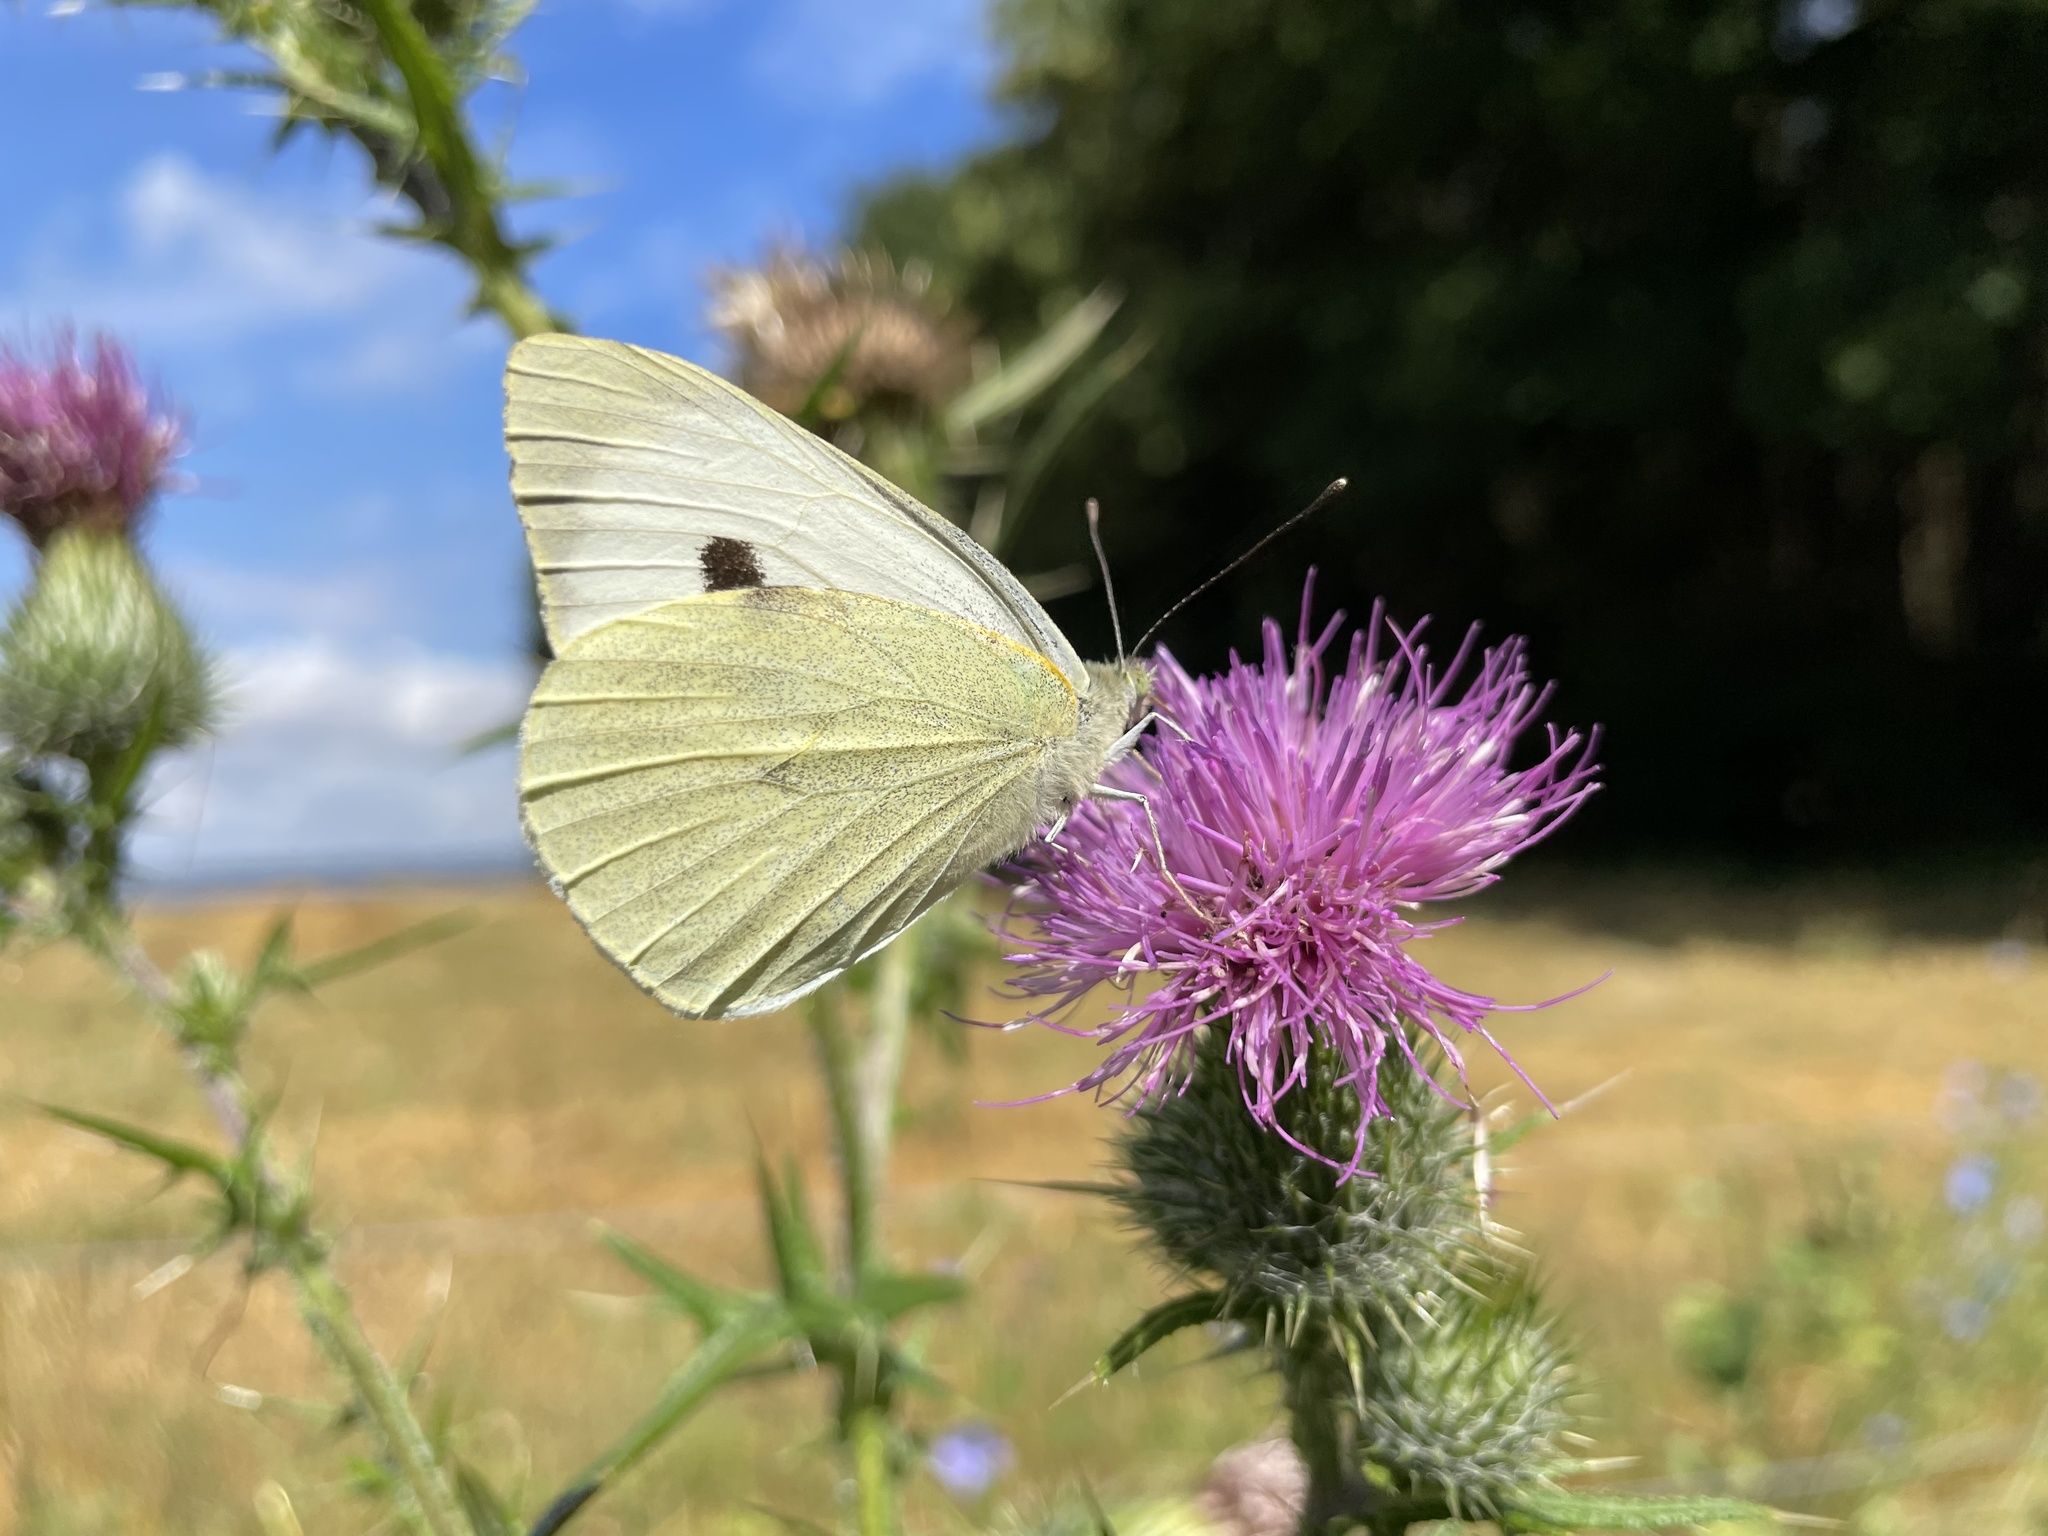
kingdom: Animalia
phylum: Arthropoda
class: Insecta
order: Lepidoptera
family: Pieridae
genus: Pieris
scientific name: Pieris brassicae
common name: Large white
